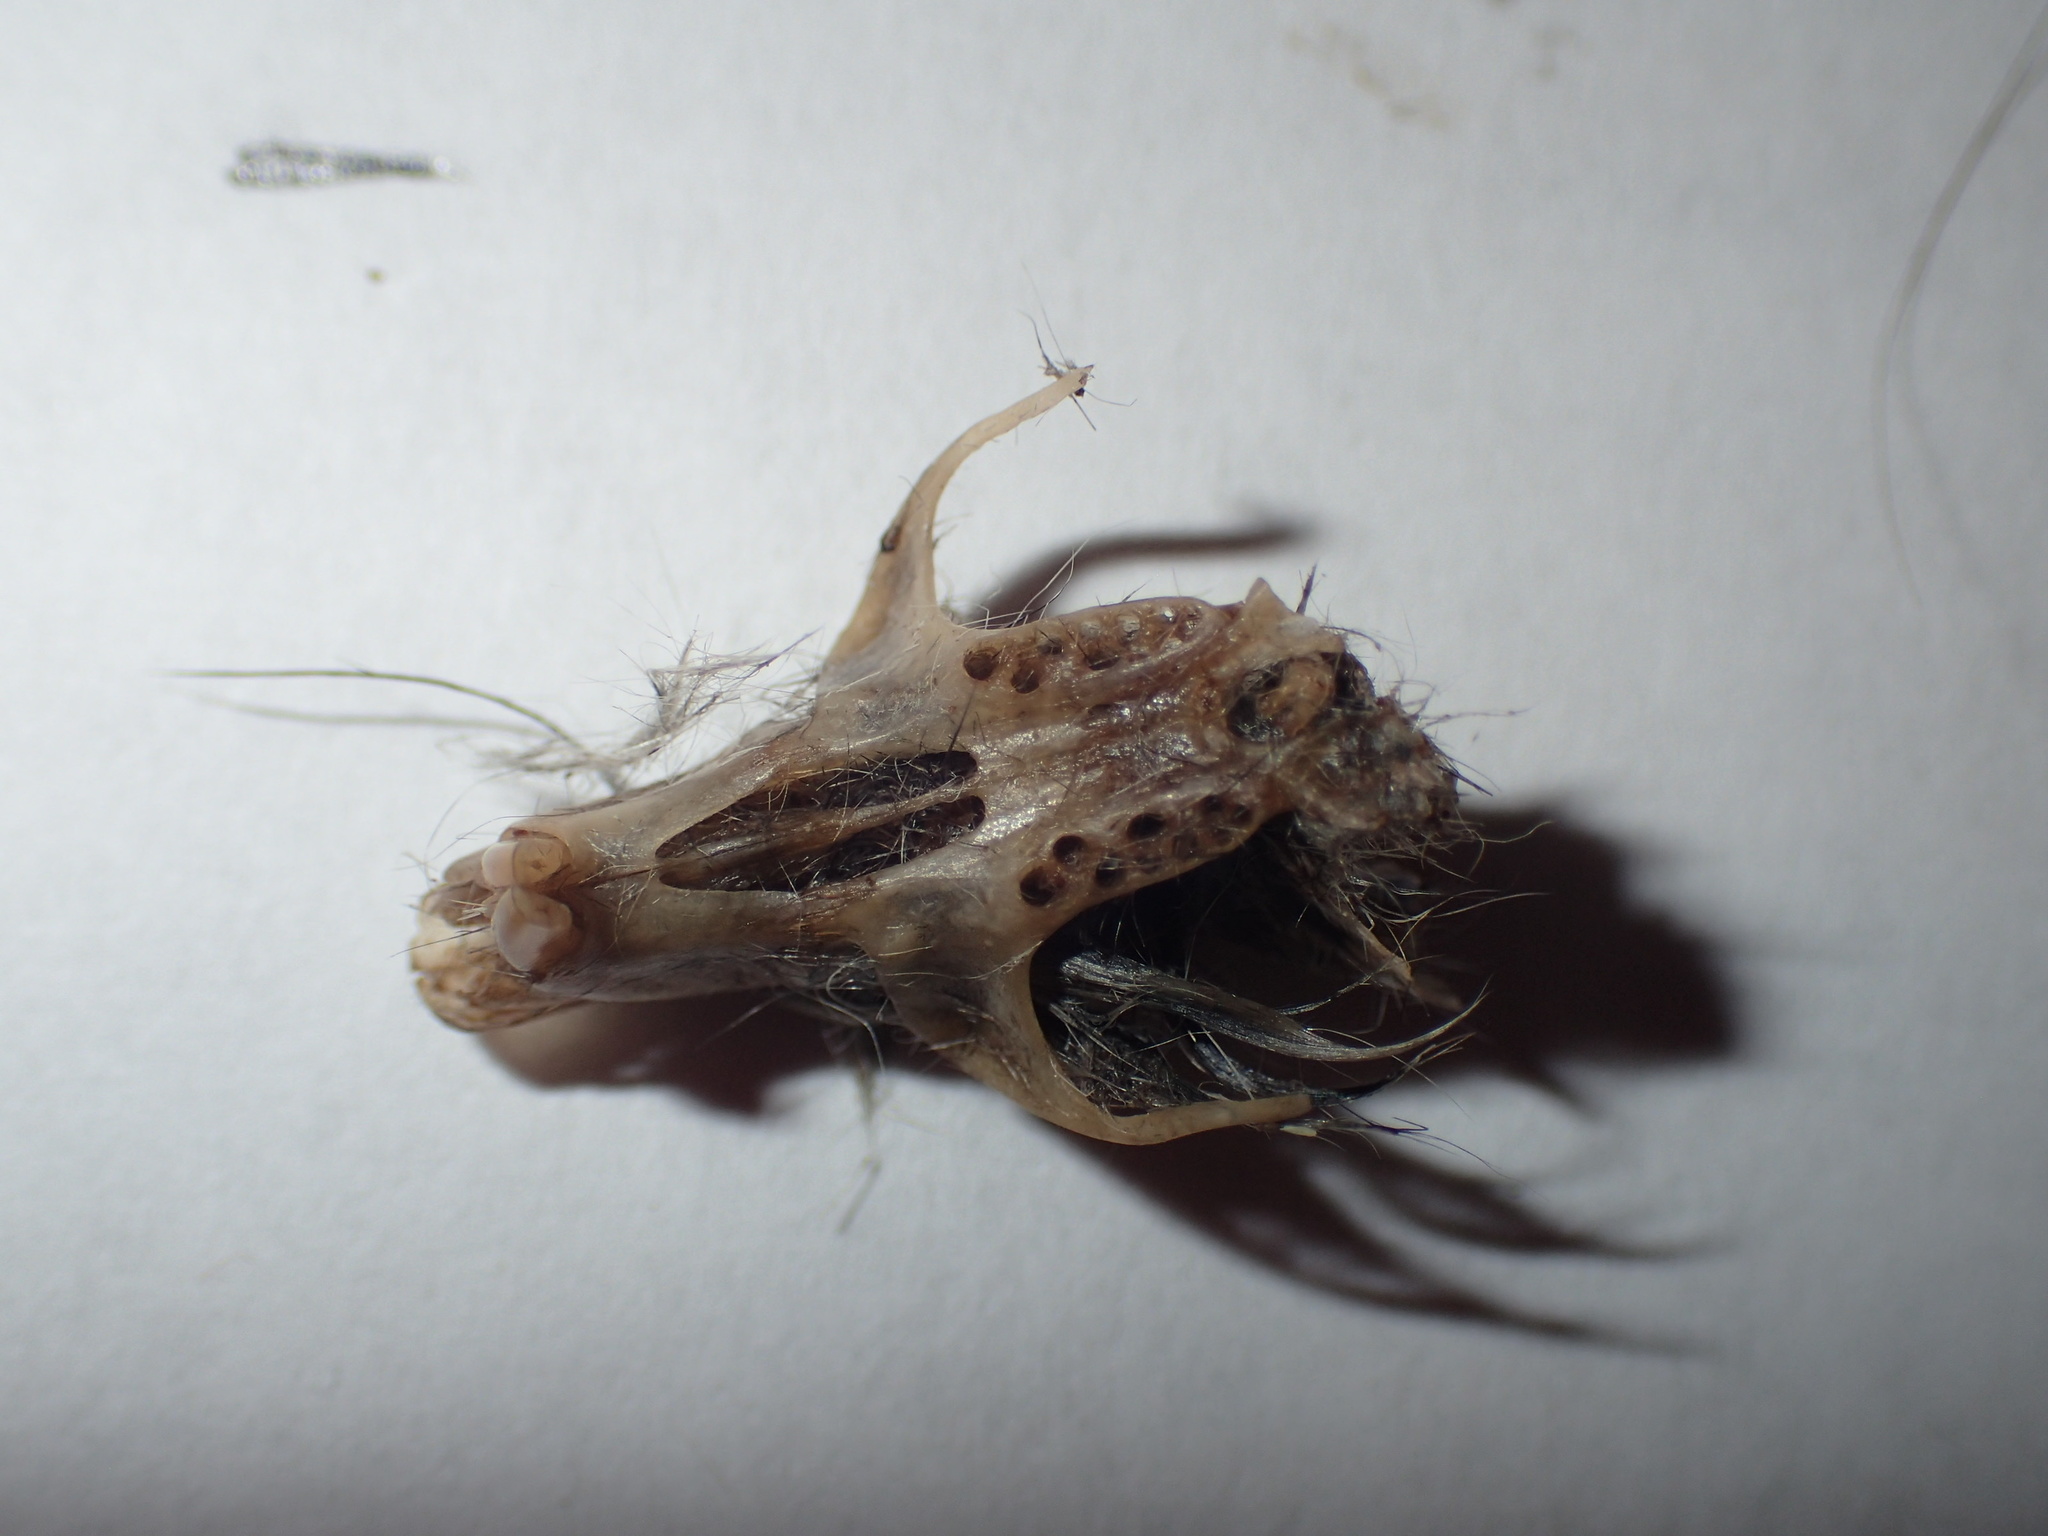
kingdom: Animalia
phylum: Chordata
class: Mammalia
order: Rodentia
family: Cricetidae
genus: Peromyscus
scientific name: Peromyscus leucopus
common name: White-footed deermouse
